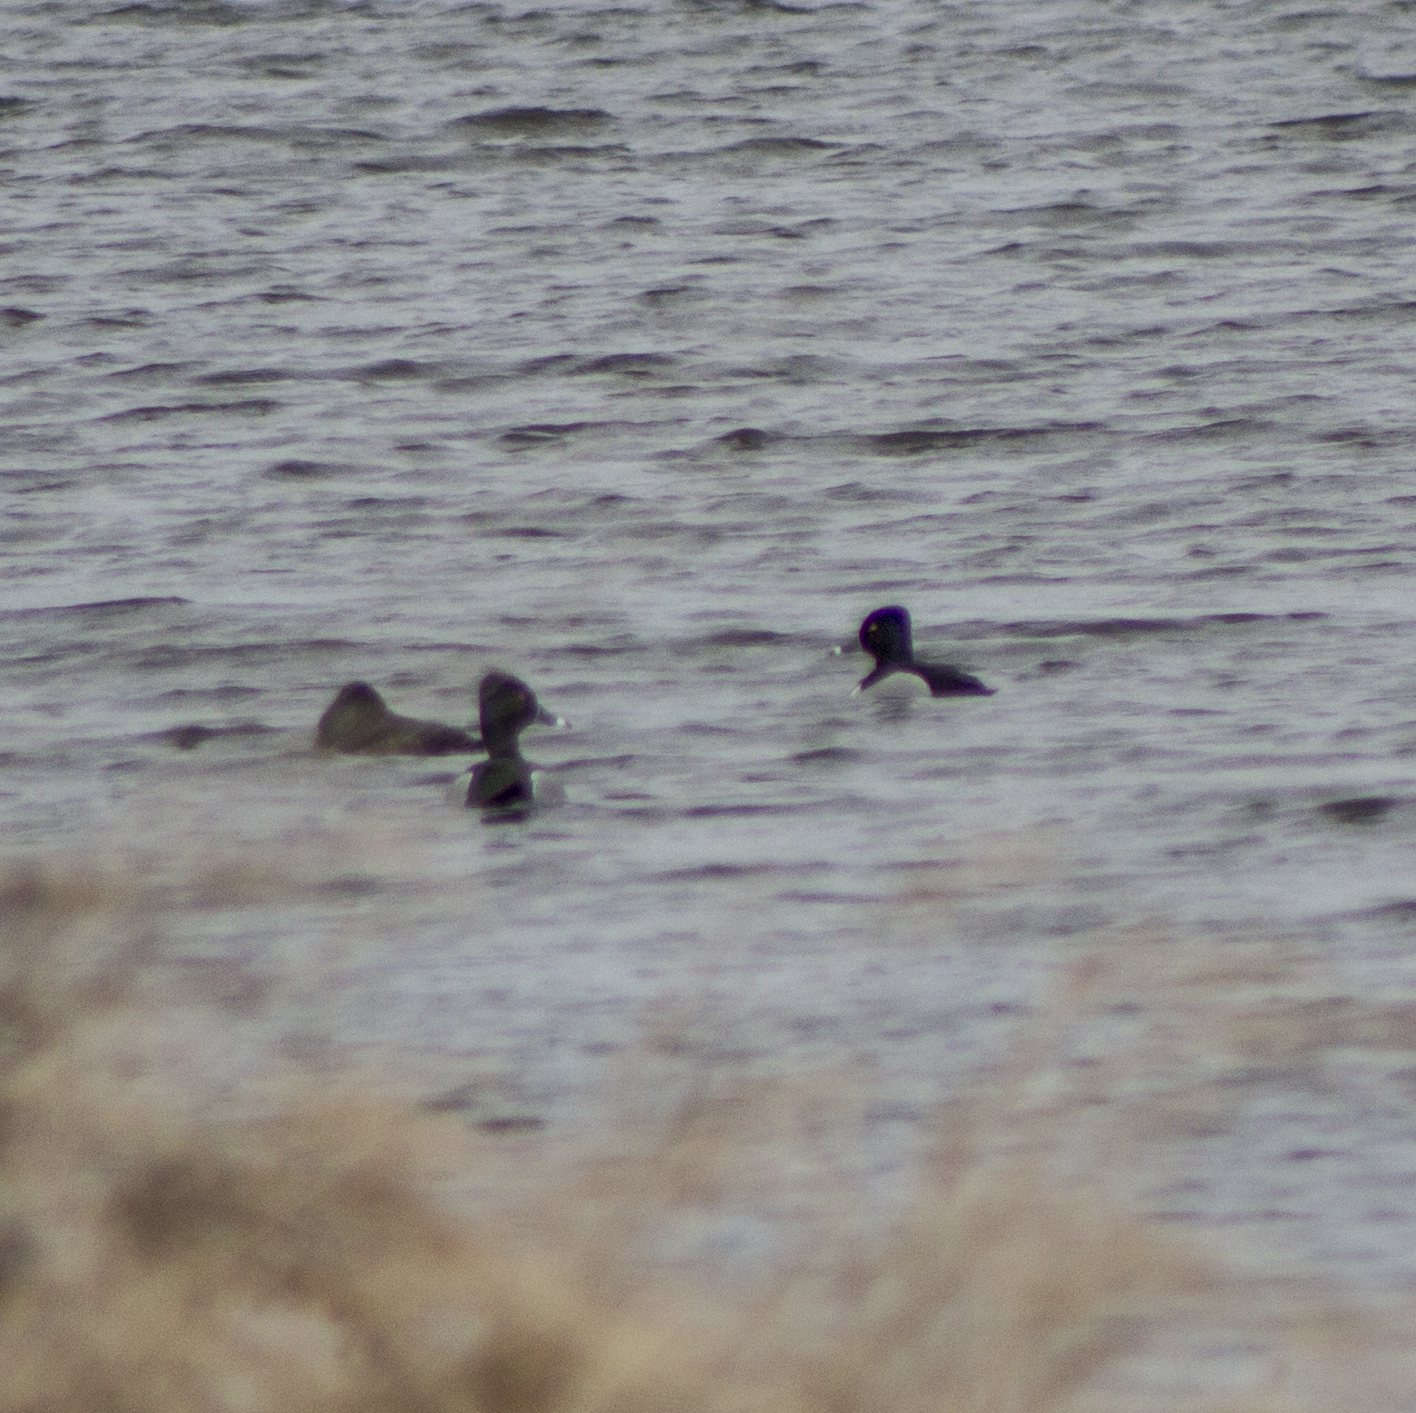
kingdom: Animalia
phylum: Chordata
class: Aves
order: Anseriformes
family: Anatidae
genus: Aythya
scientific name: Aythya collaris
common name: Ring-necked duck
